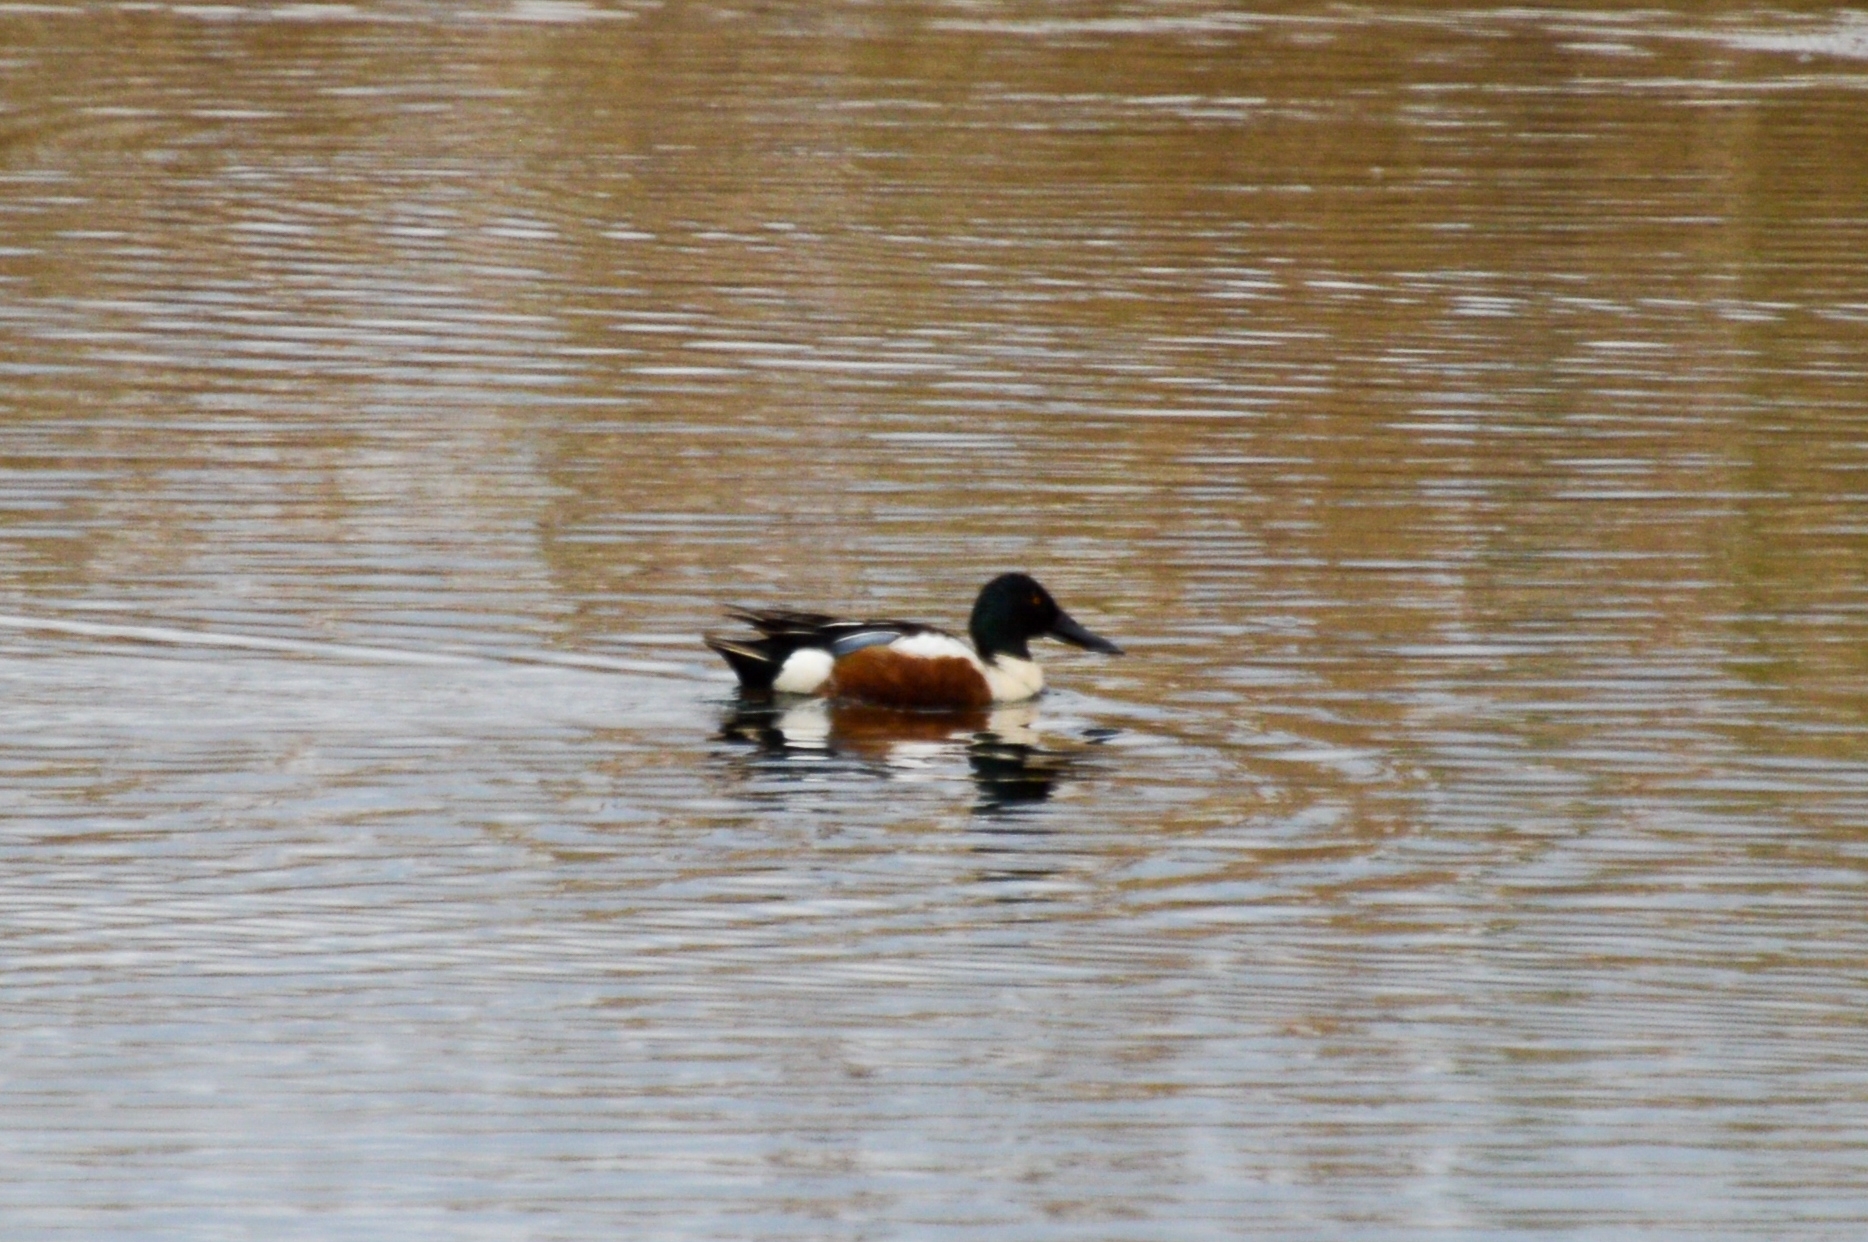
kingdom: Animalia
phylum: Chordata
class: Aves
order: Anseriformes
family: Anatidae
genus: Spatula
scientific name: Spatula clypeata
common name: Northern shoveler
